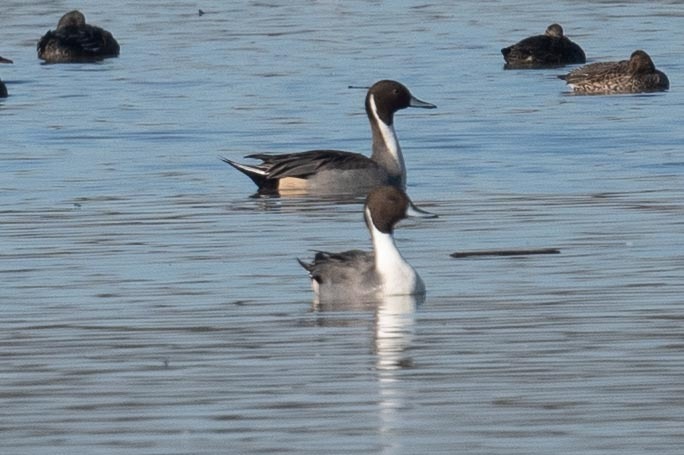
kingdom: Animalia
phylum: Chordata
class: Aves
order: Anseriformes
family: Anatidae
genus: Anas
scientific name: Anas acuta
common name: Northern pintail
